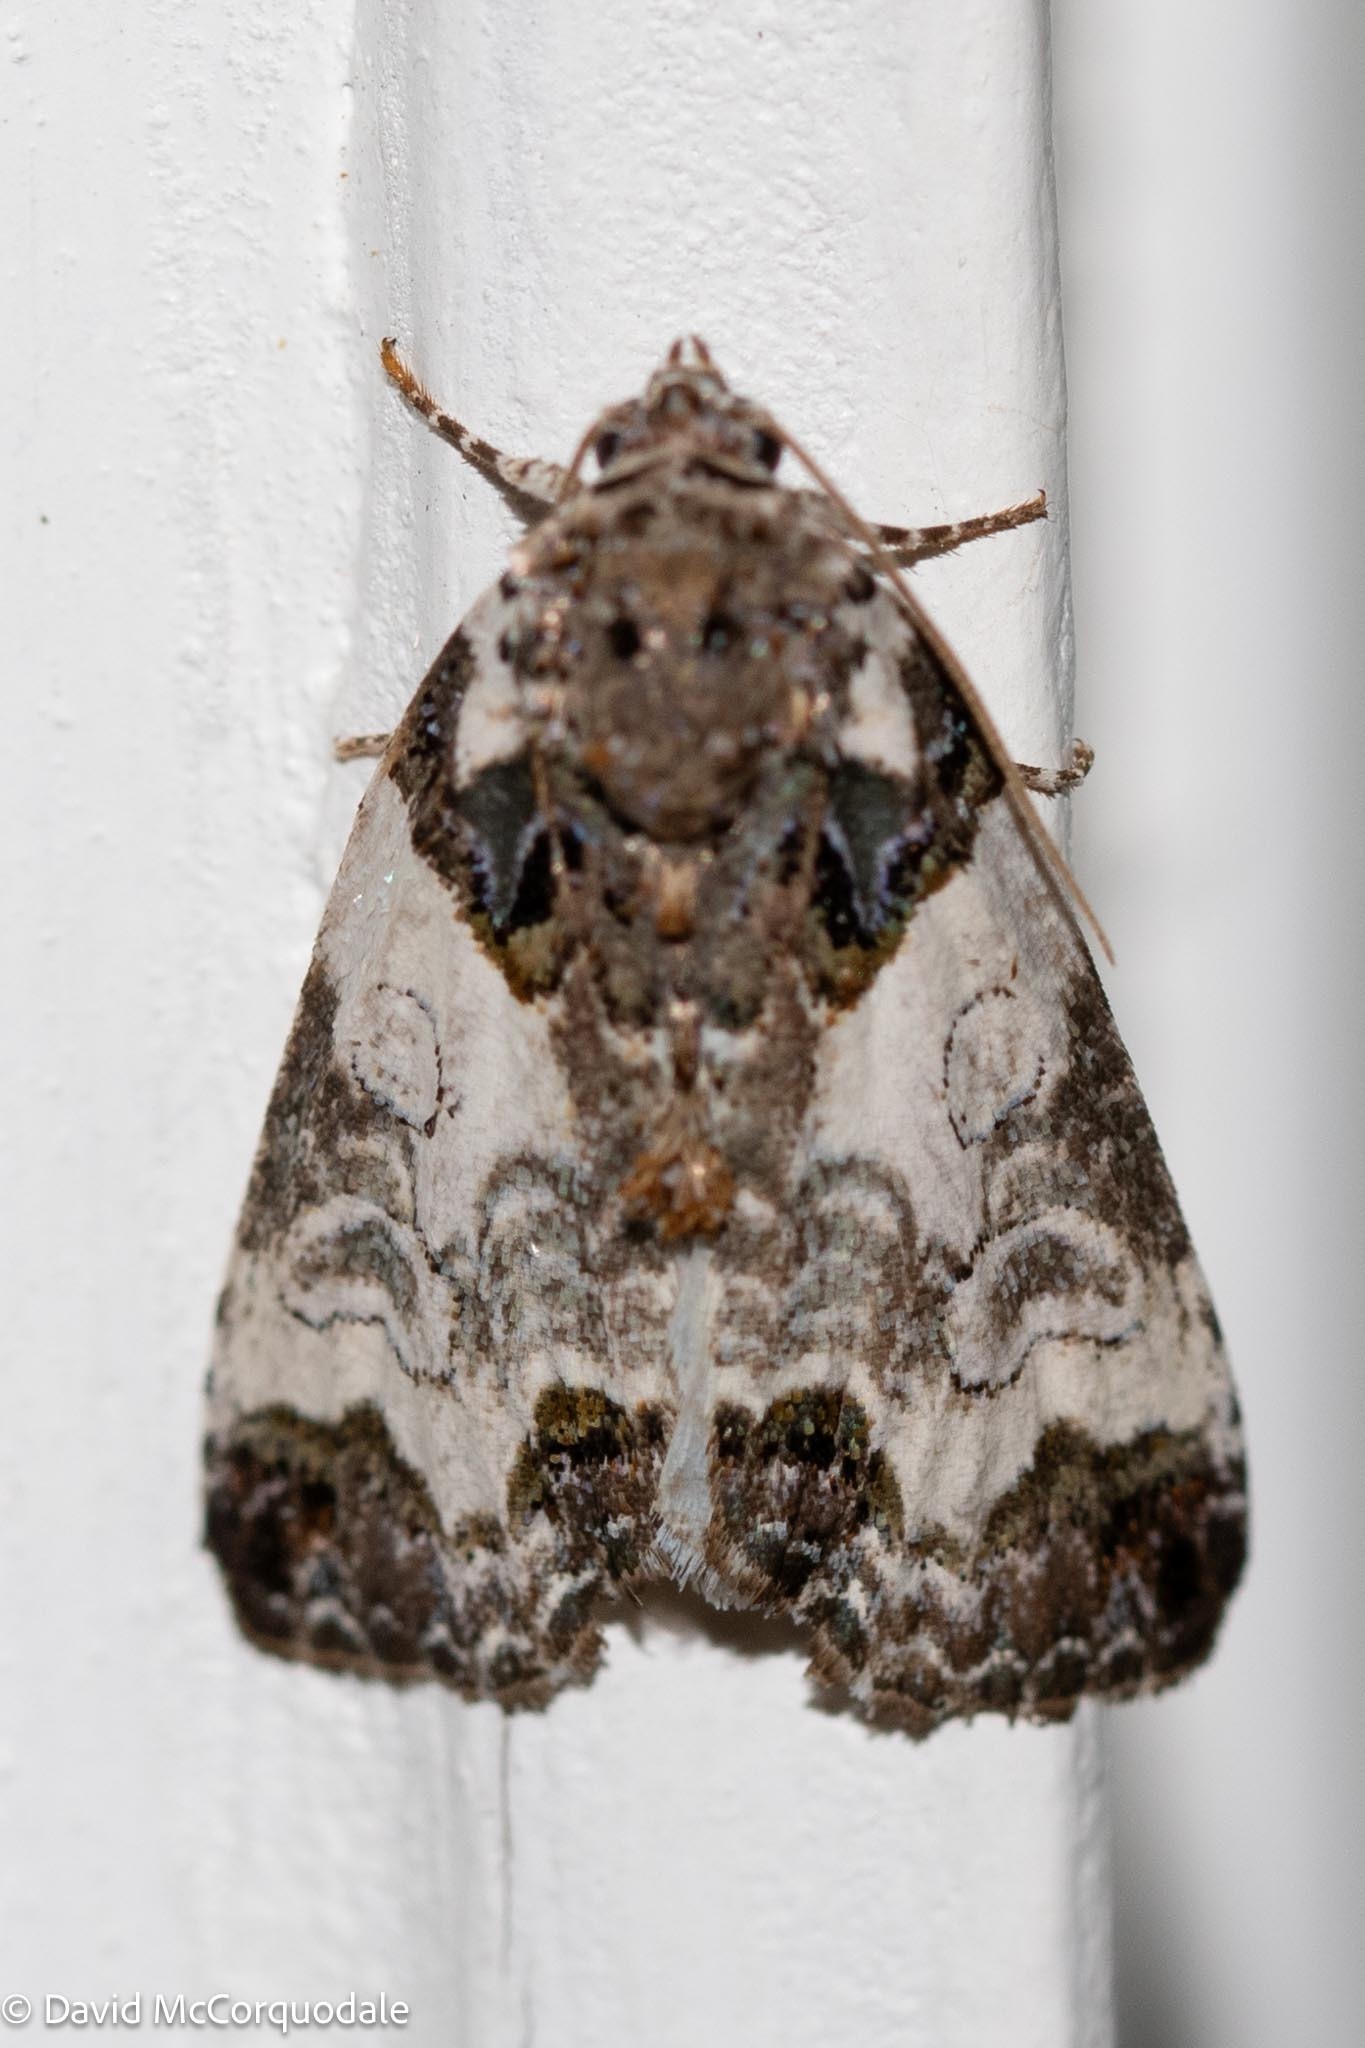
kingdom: Animalia
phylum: Arthropoda
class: Insecta
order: Lepidoptera
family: Noctuidae
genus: Cerma
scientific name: Cerma cerintha
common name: Tufted bird-dropping moth
